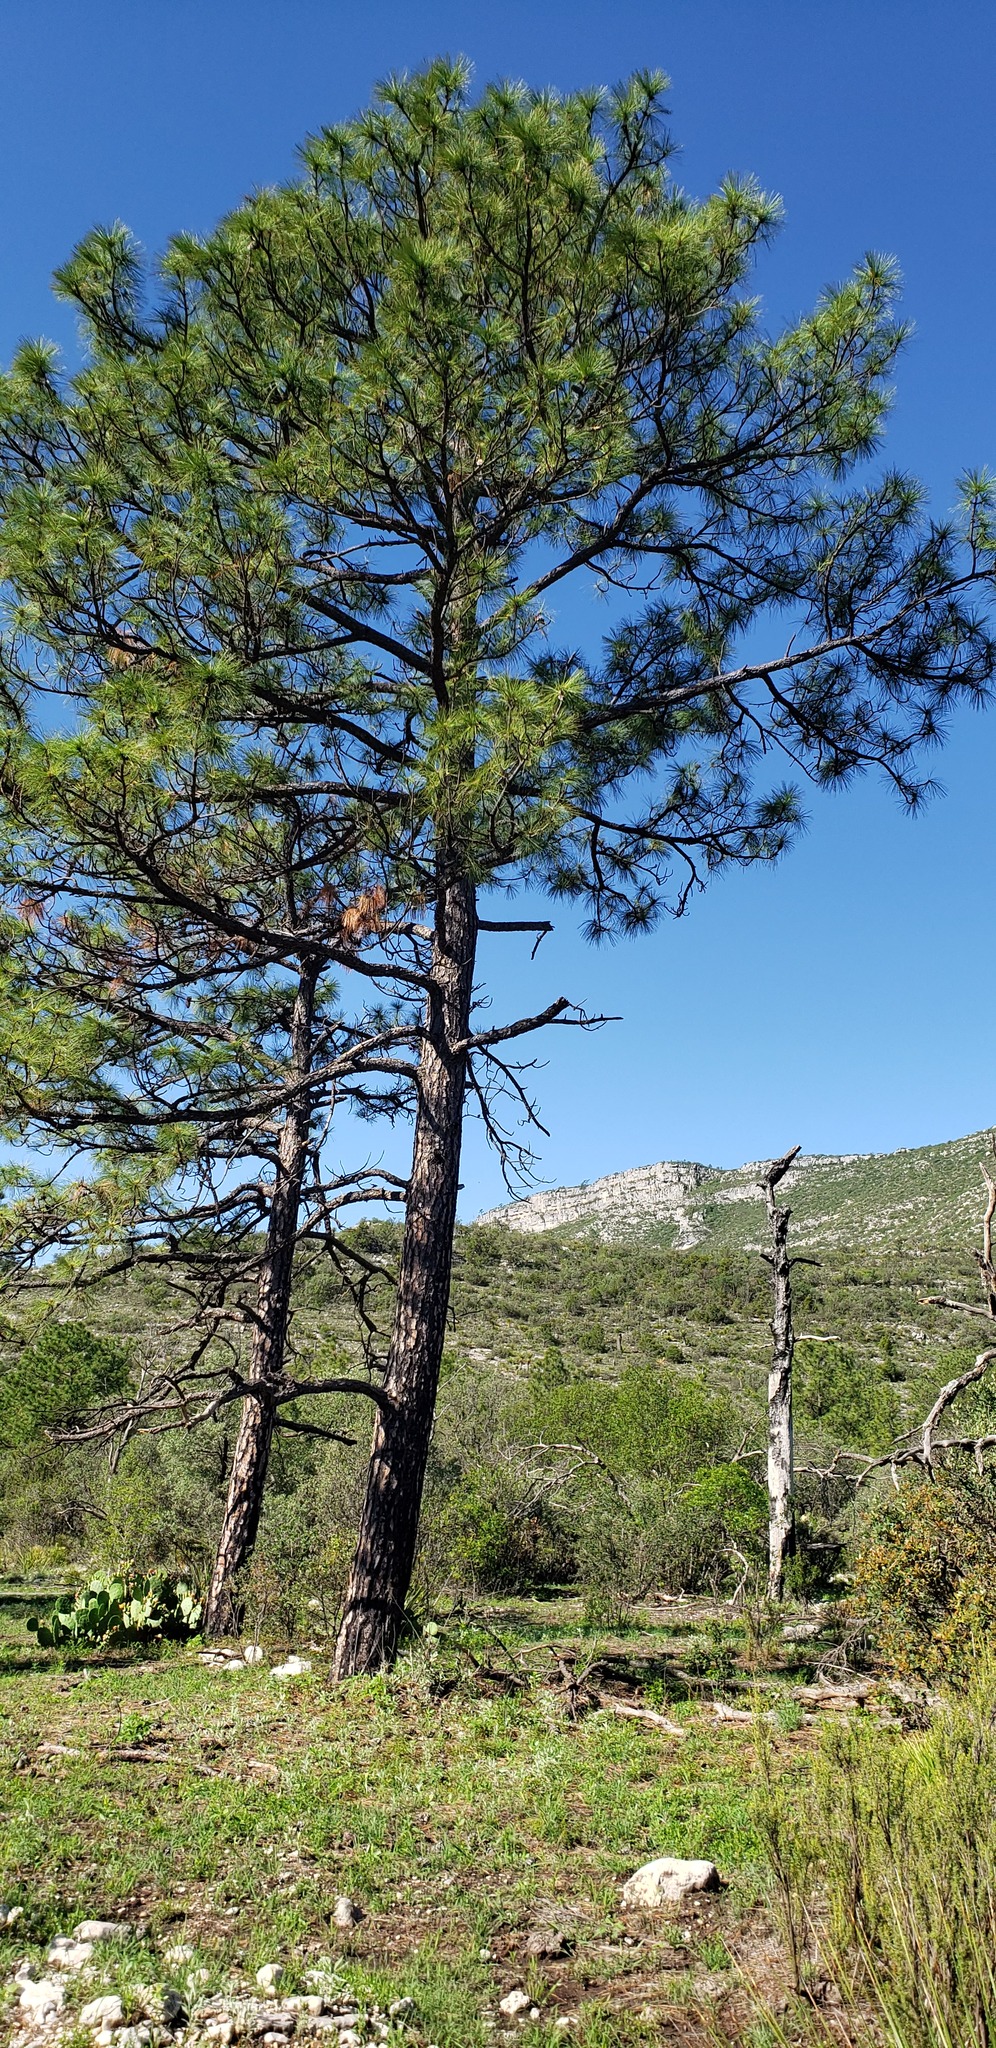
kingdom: Plantae
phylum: Tracheophyta
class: Pinopsida
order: Pinales
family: Pinaceae
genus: Pinus
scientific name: Pinus arizonica
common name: Arizona pine
